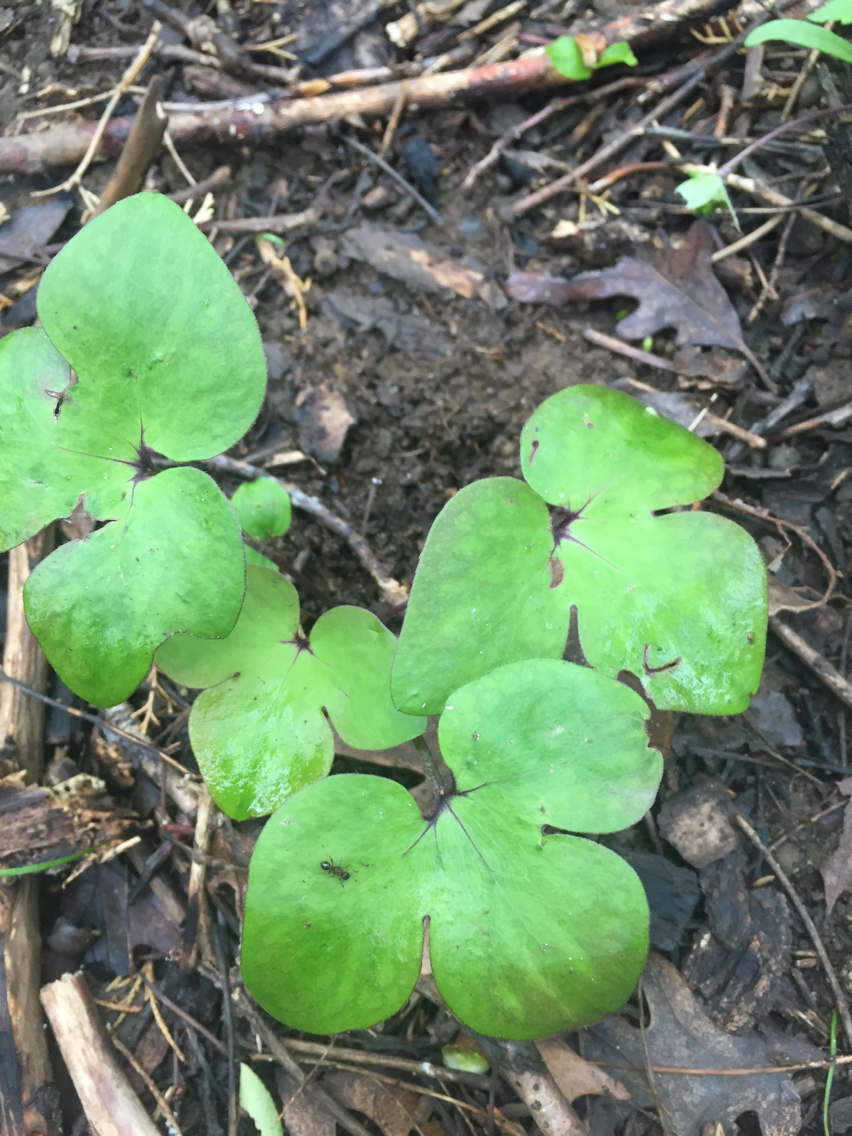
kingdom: Plantae
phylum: Tracheophyta
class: Magnoliopsida
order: Ranunculales
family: Ranunculaceae
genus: Hepatica
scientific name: Hepatica americana
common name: American hepatica
